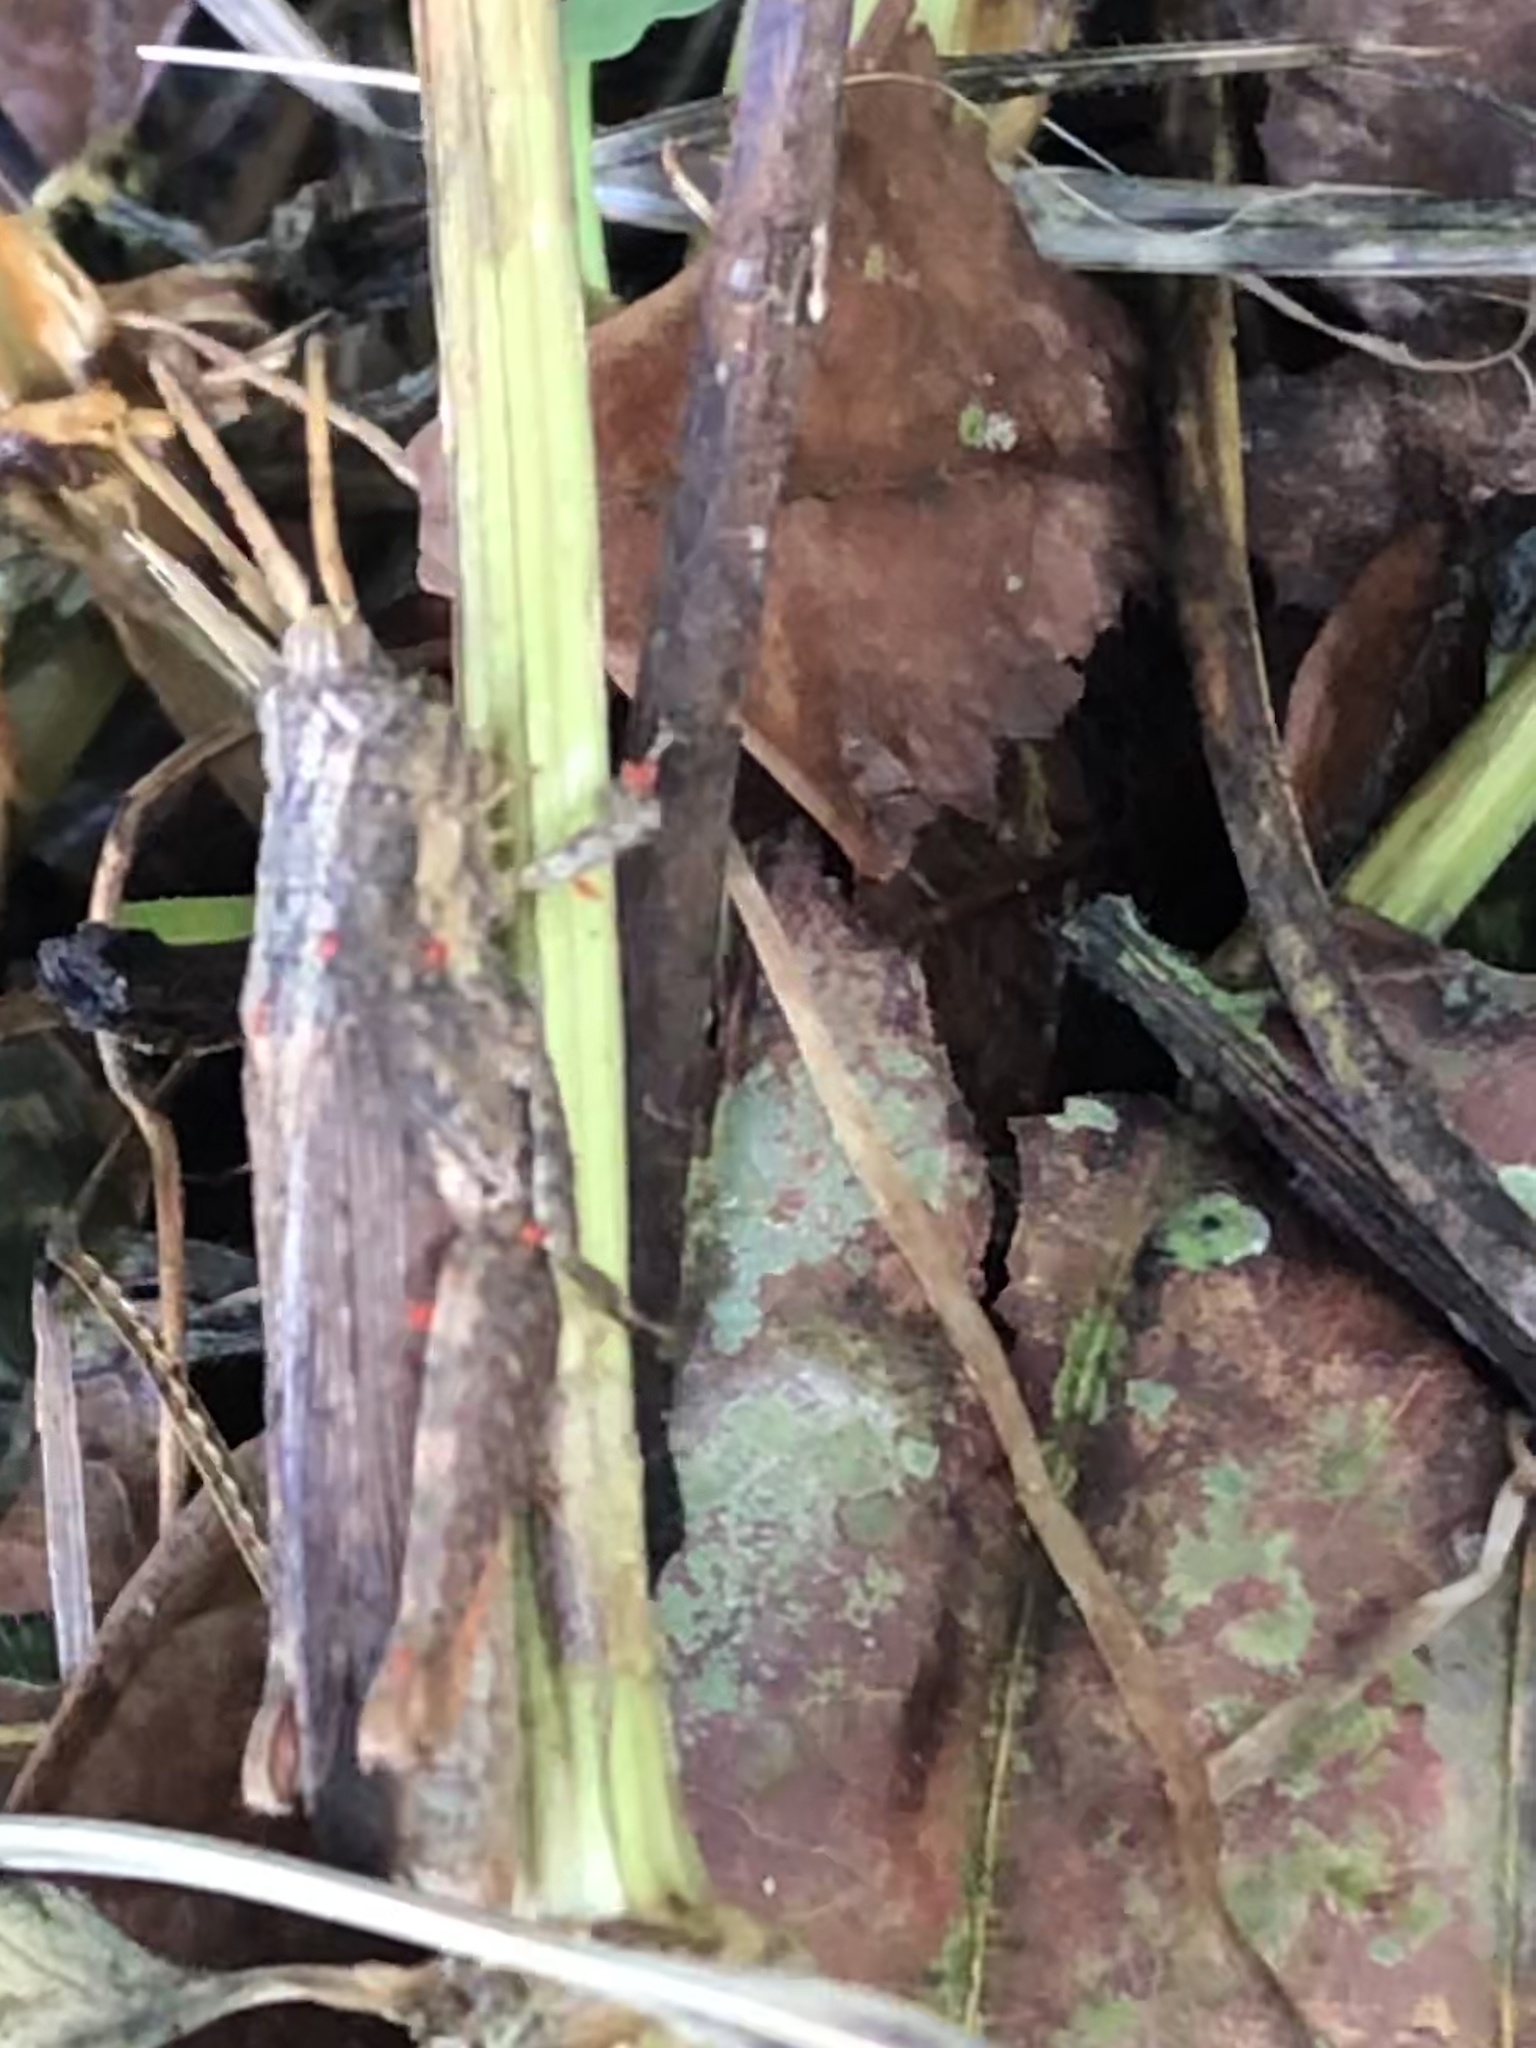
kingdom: Animalia
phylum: Arthropoda
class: Insecta
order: Orthoptera
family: Acrididae
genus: Vilerna
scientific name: Vilerna rugulosa
